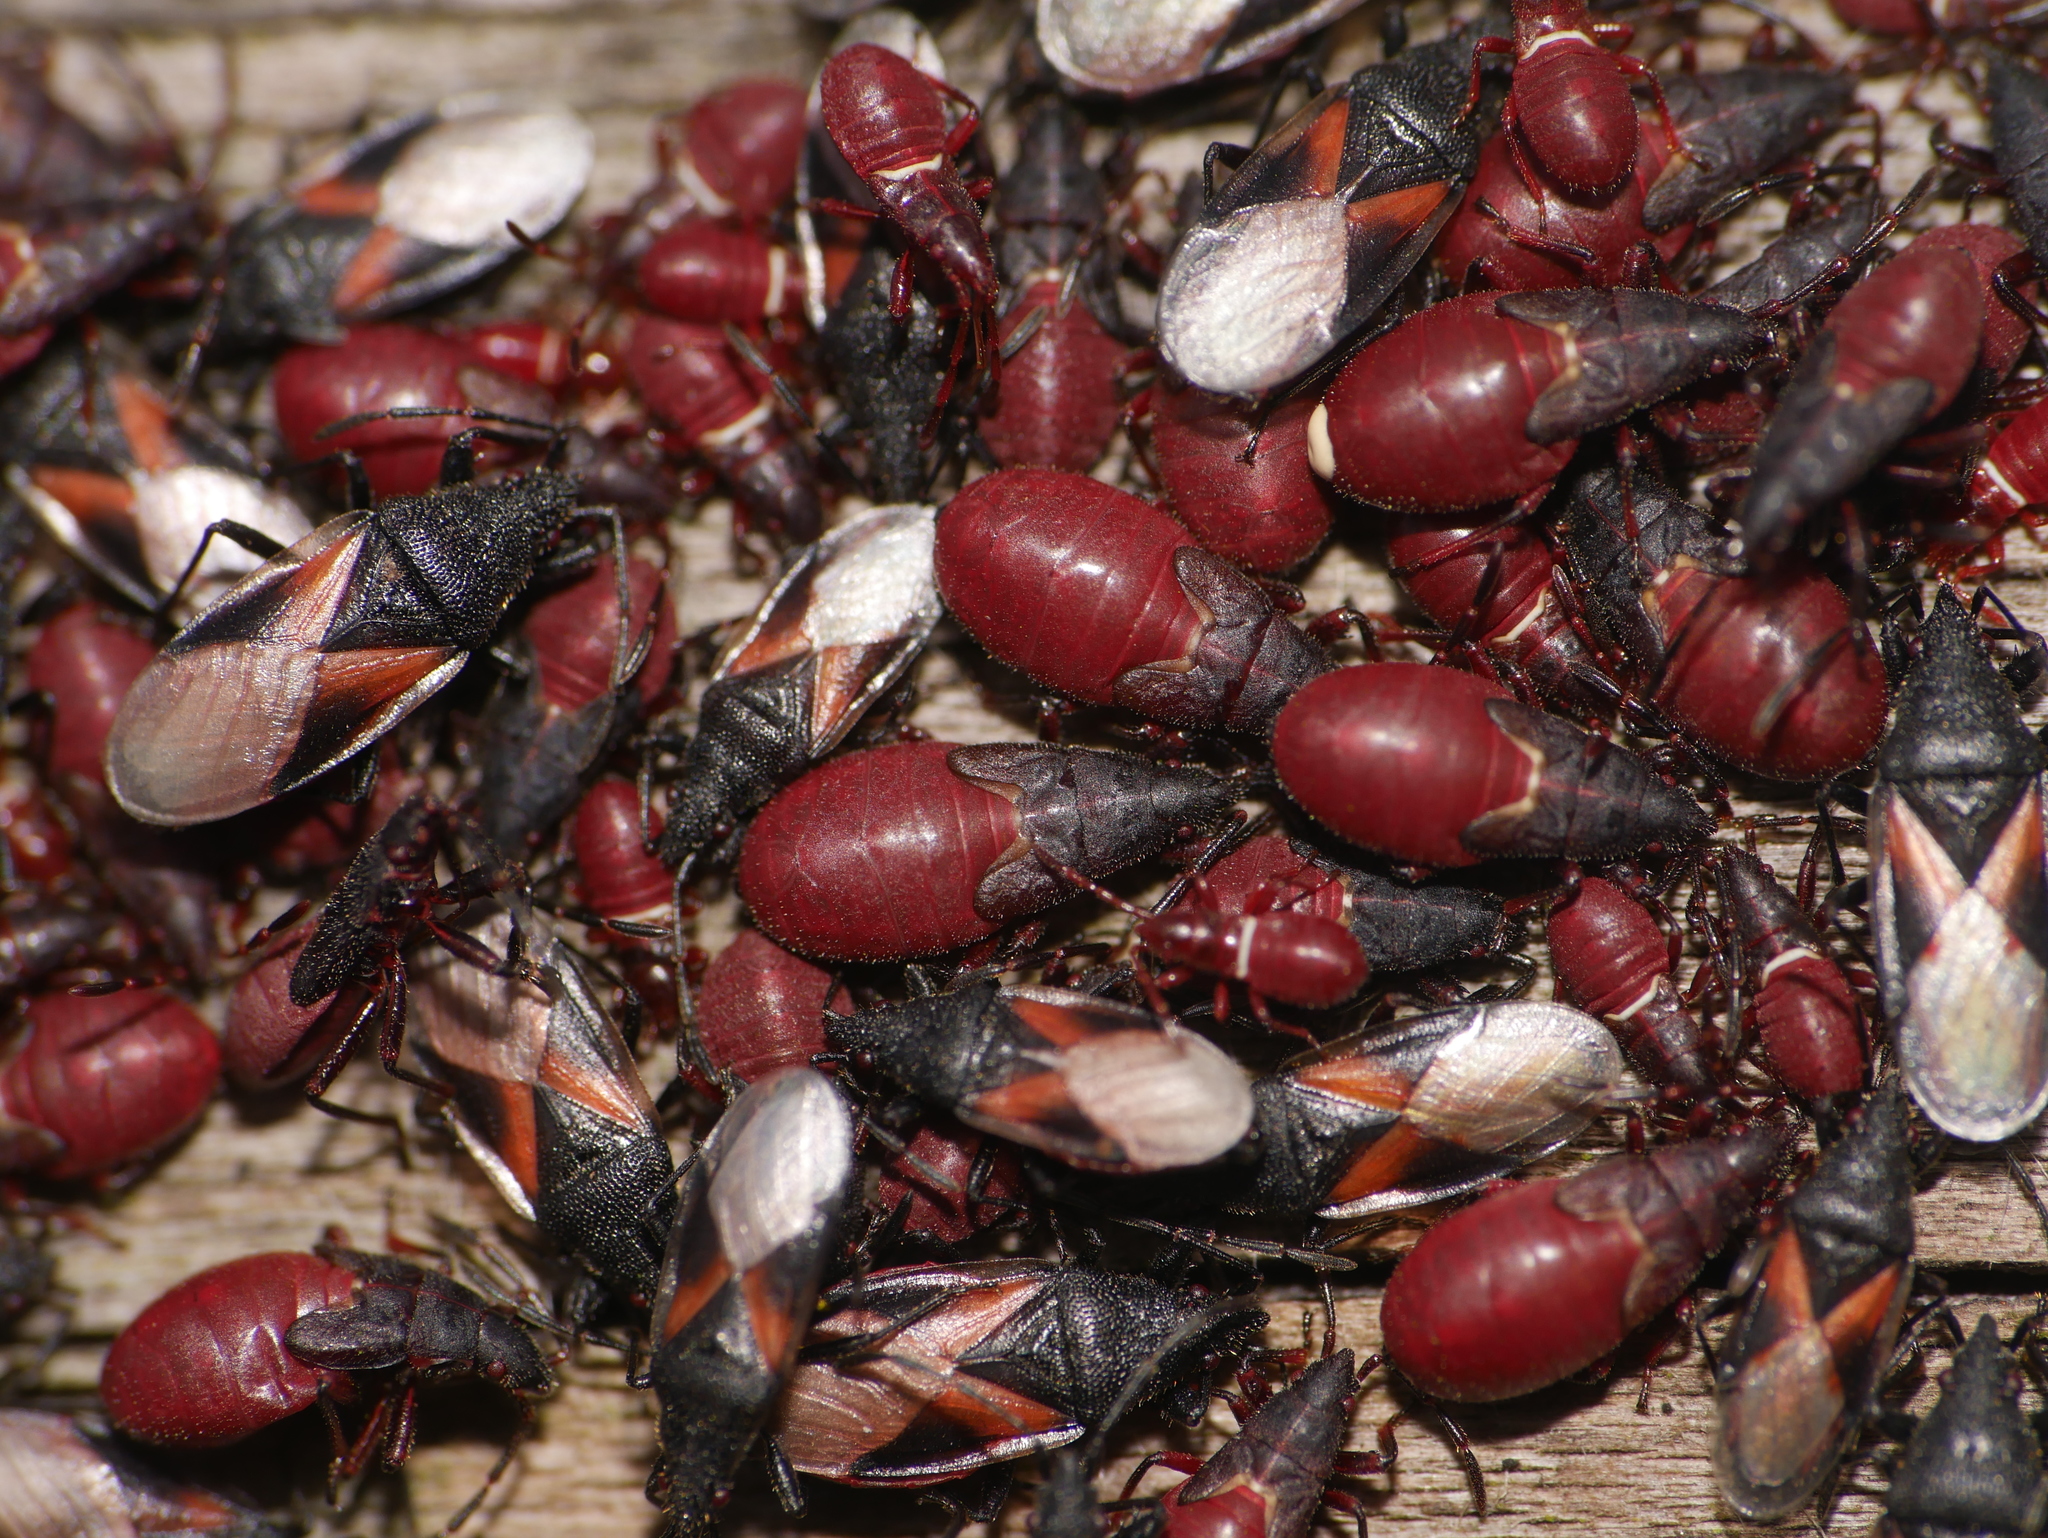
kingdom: Animalia
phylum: Arthropoda
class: Insecta
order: Hemiptera
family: Oxycarenidae
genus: Oxycarenus
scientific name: Oxycarenus lavaterae
